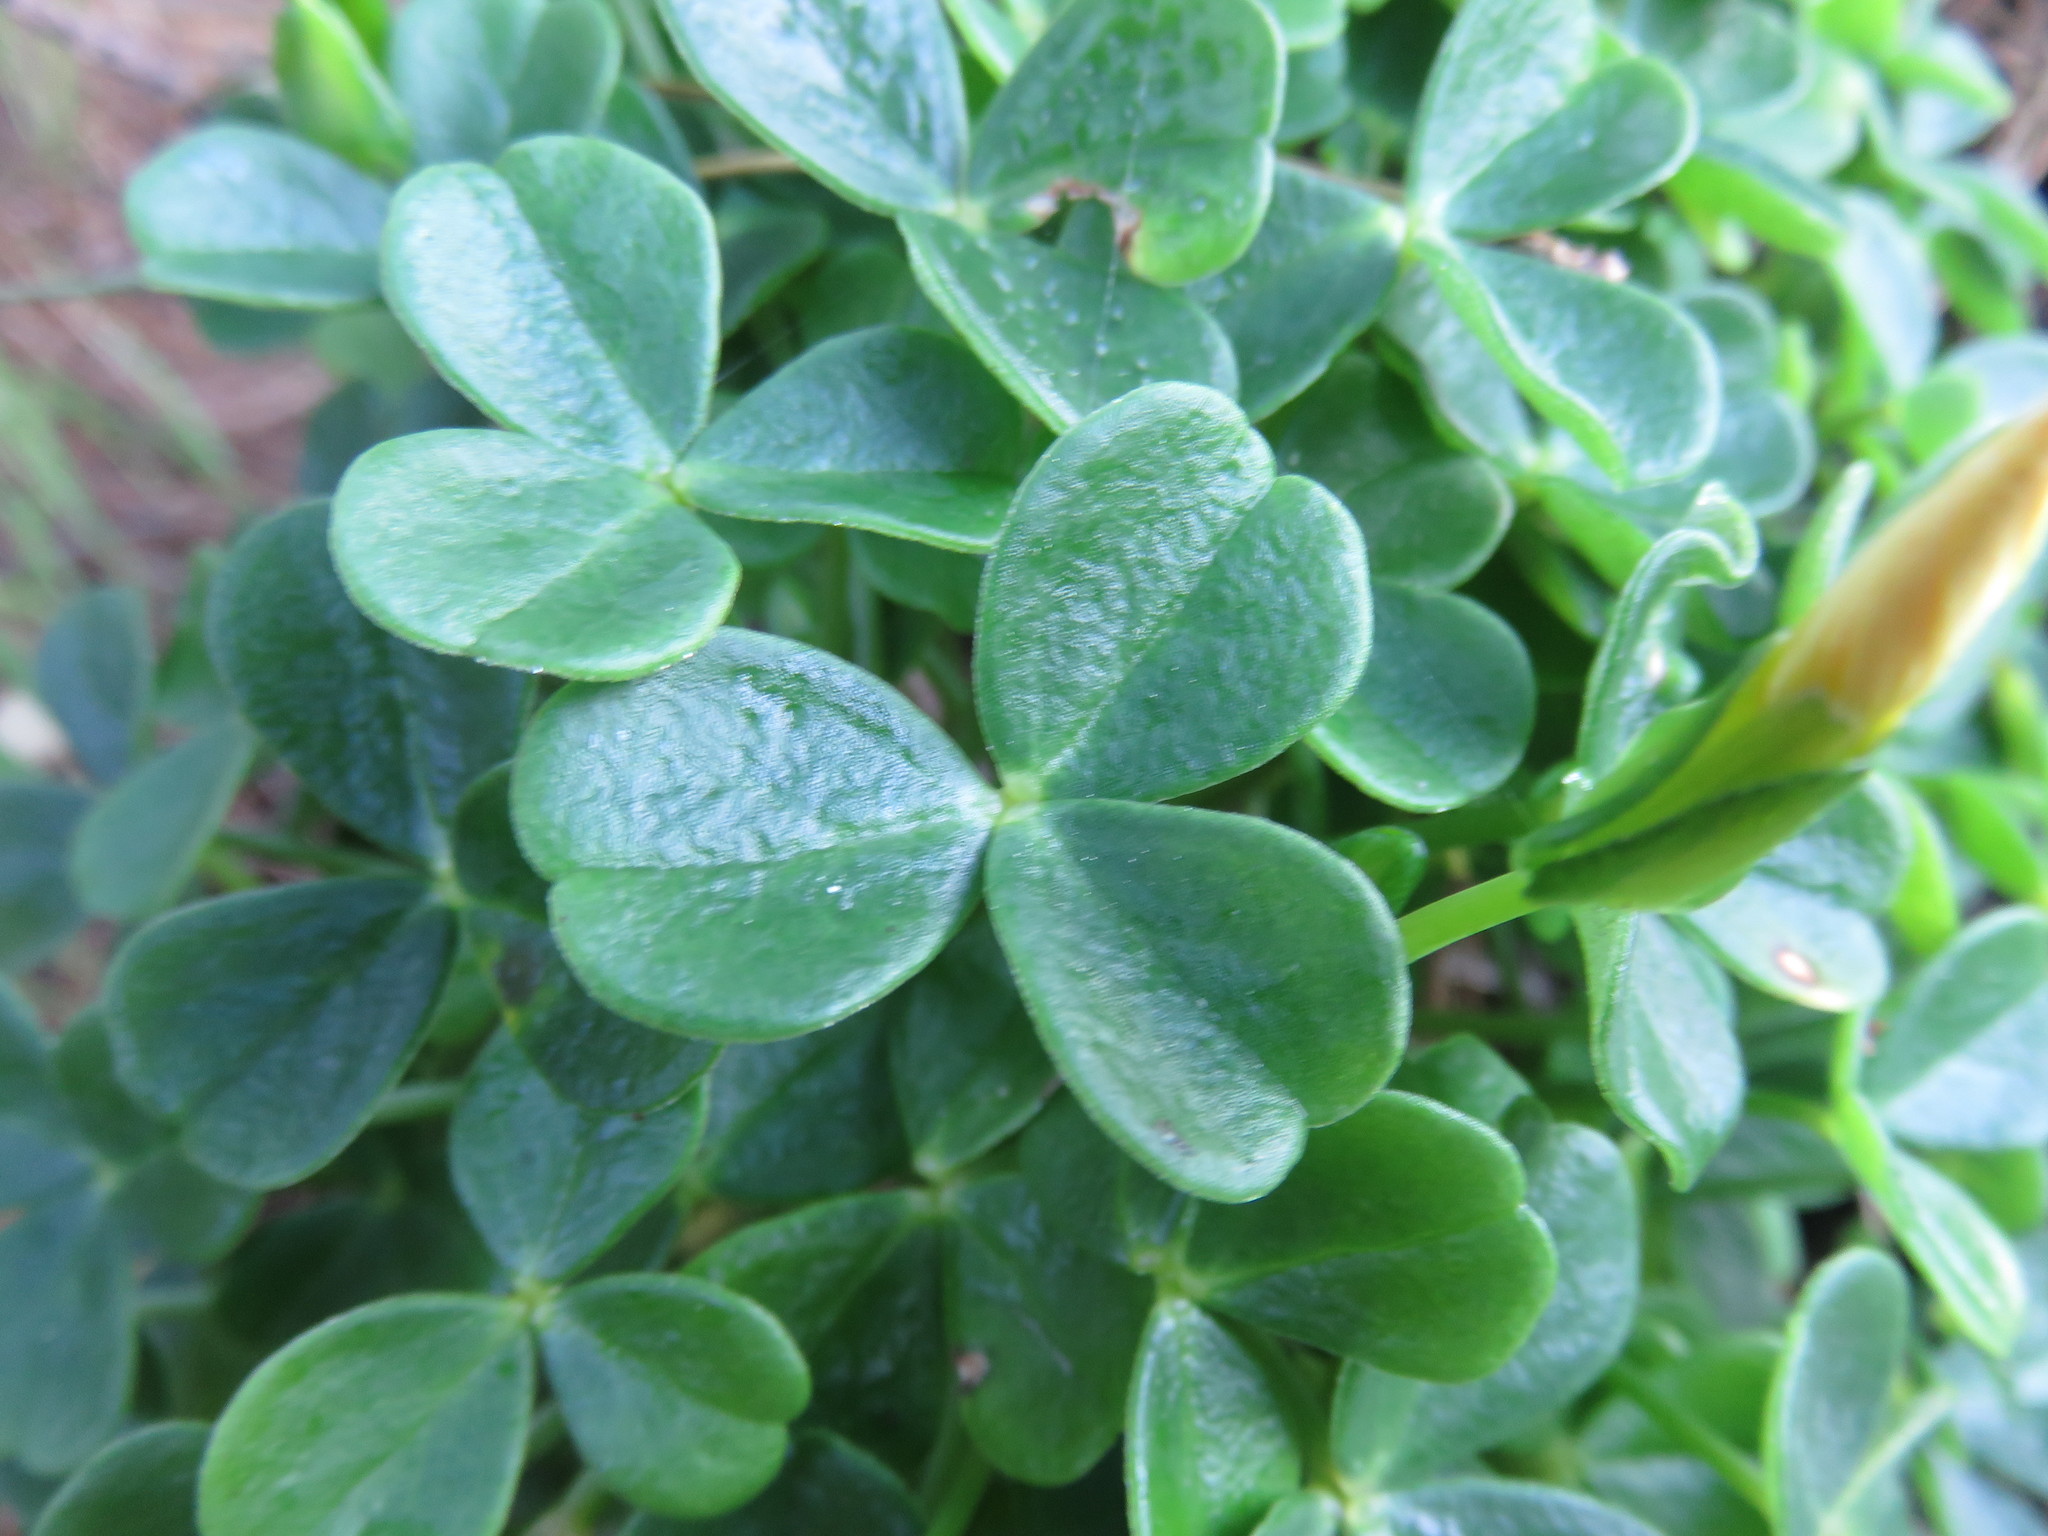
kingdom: Plantae
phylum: Tracheophyta
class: Magnoliopsida
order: Oxalidales
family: Oxalidaceae
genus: Oxalis
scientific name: Oxalis megalorrhiza
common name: Fleshy yellow-sorrel
